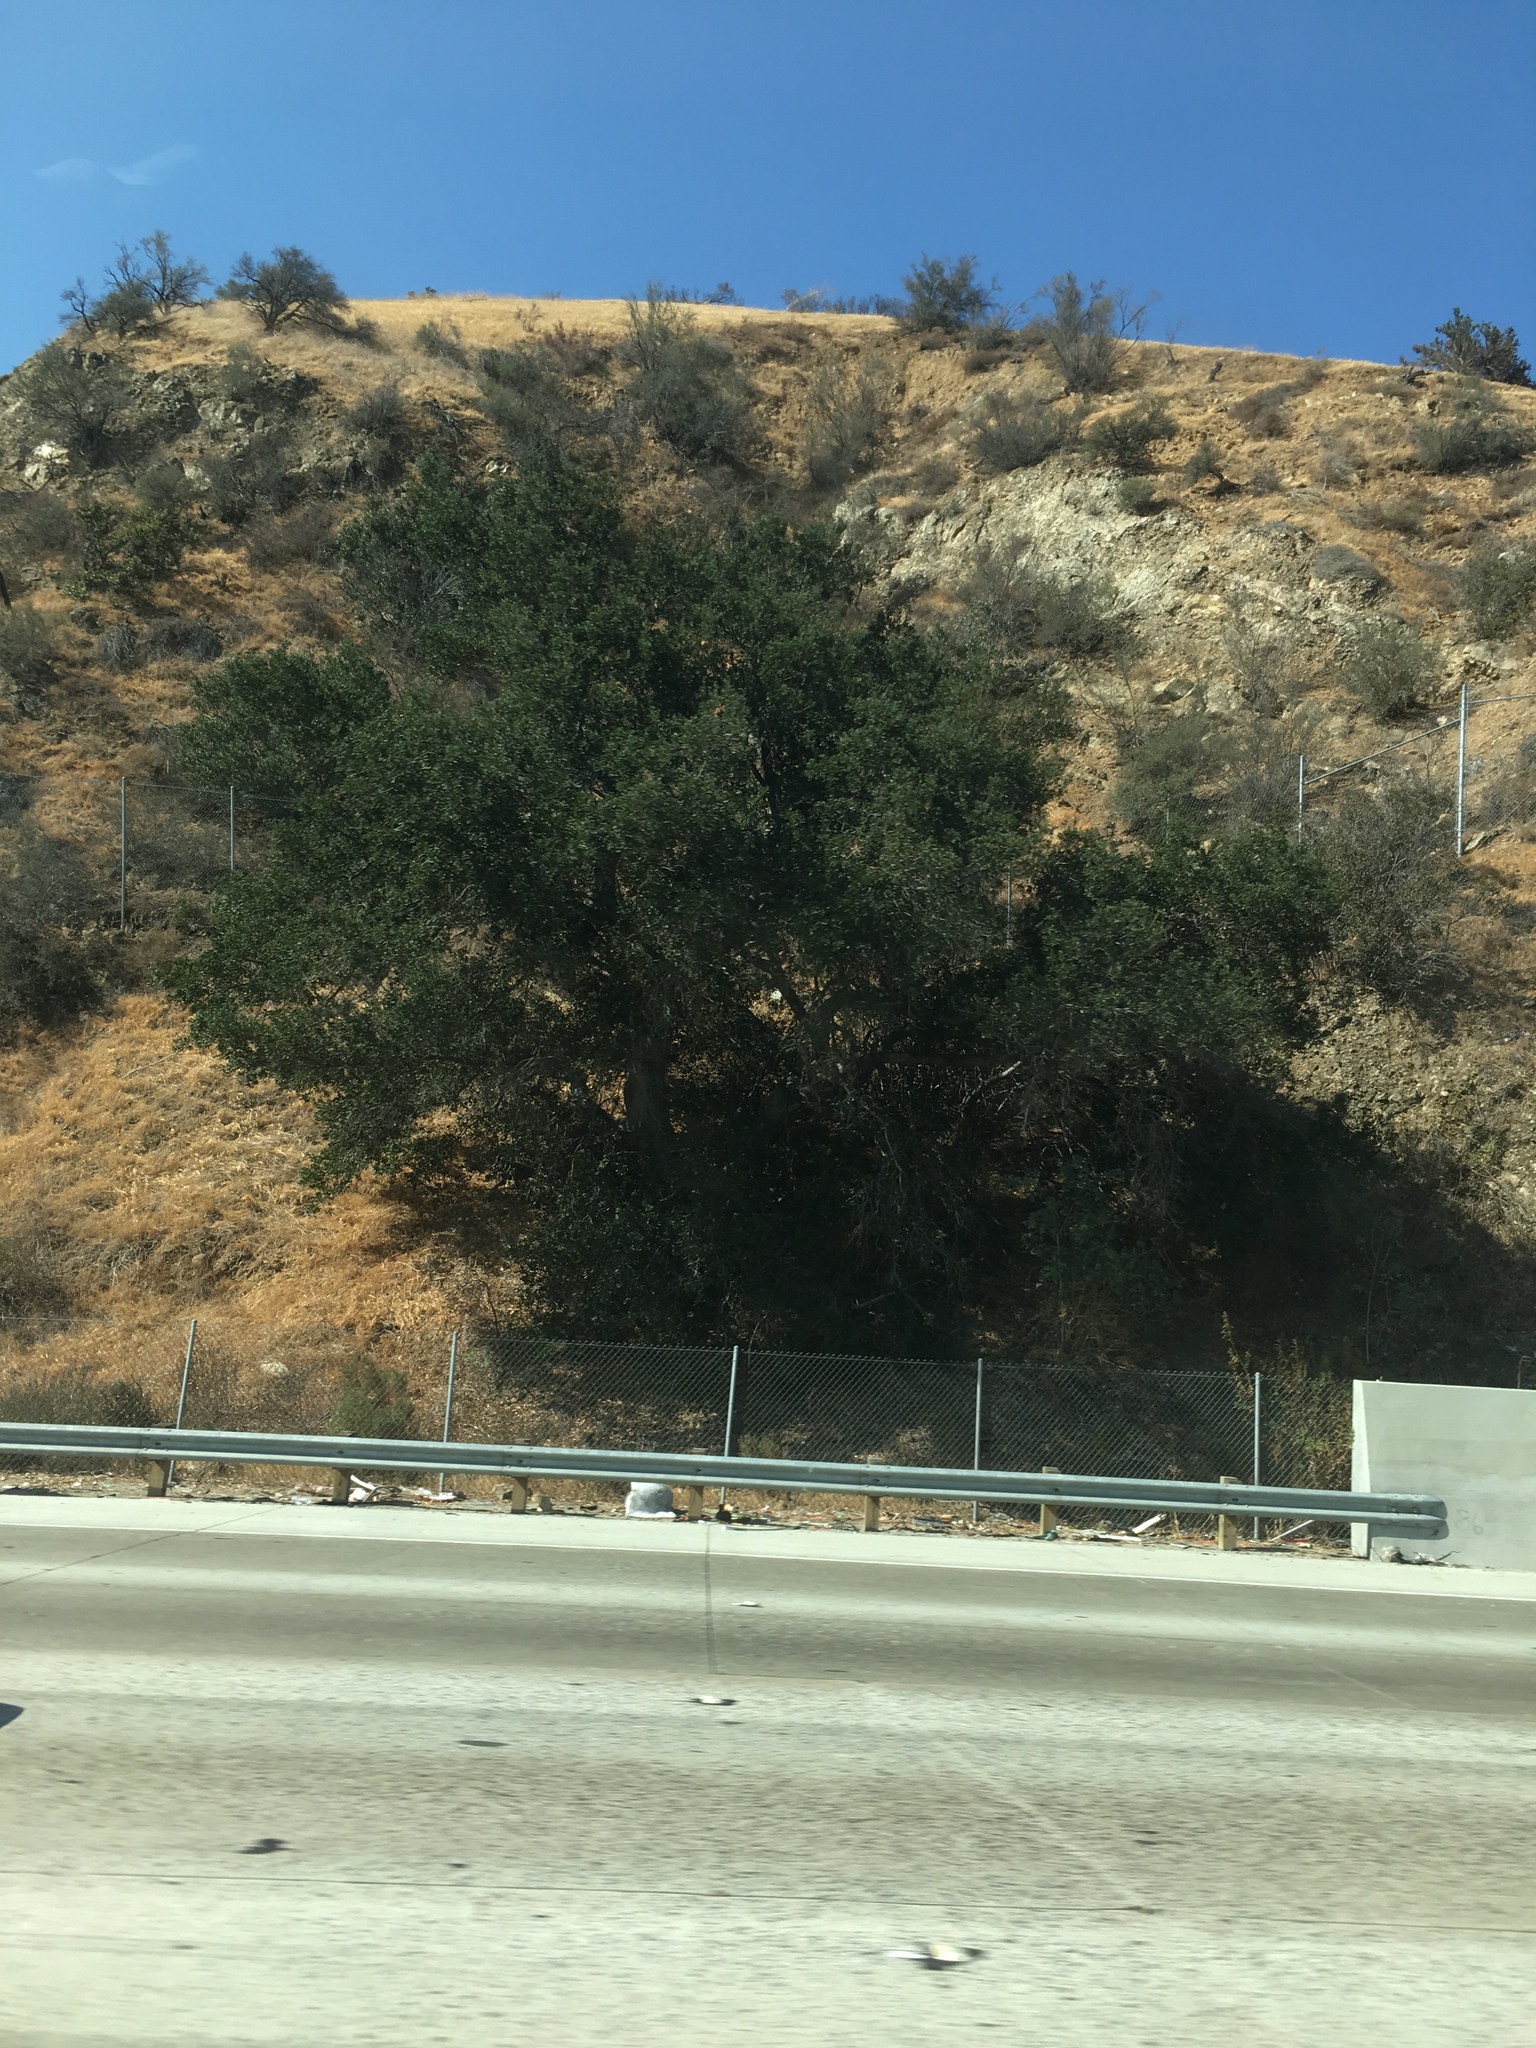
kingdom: Plantae
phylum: Tracheophyta
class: Magnoliopsida
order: Fagales
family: Fagaceae
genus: Quercus
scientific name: Quercus agrifolia
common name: California live oak
